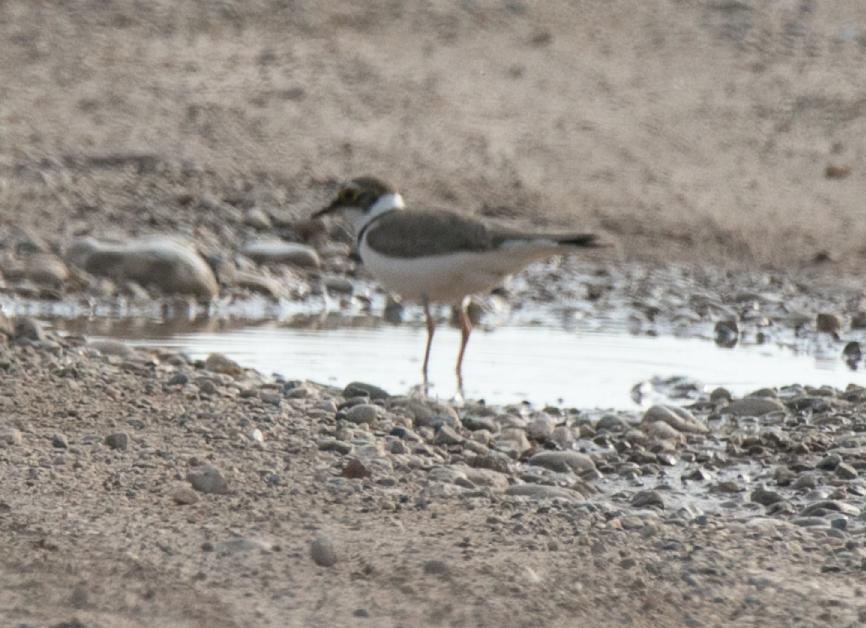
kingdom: Animalia
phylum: Chordata
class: Aves
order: Charadriiformes
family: Charadriidae
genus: Charadrius
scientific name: Charadrius dubius
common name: Little ringed plover
